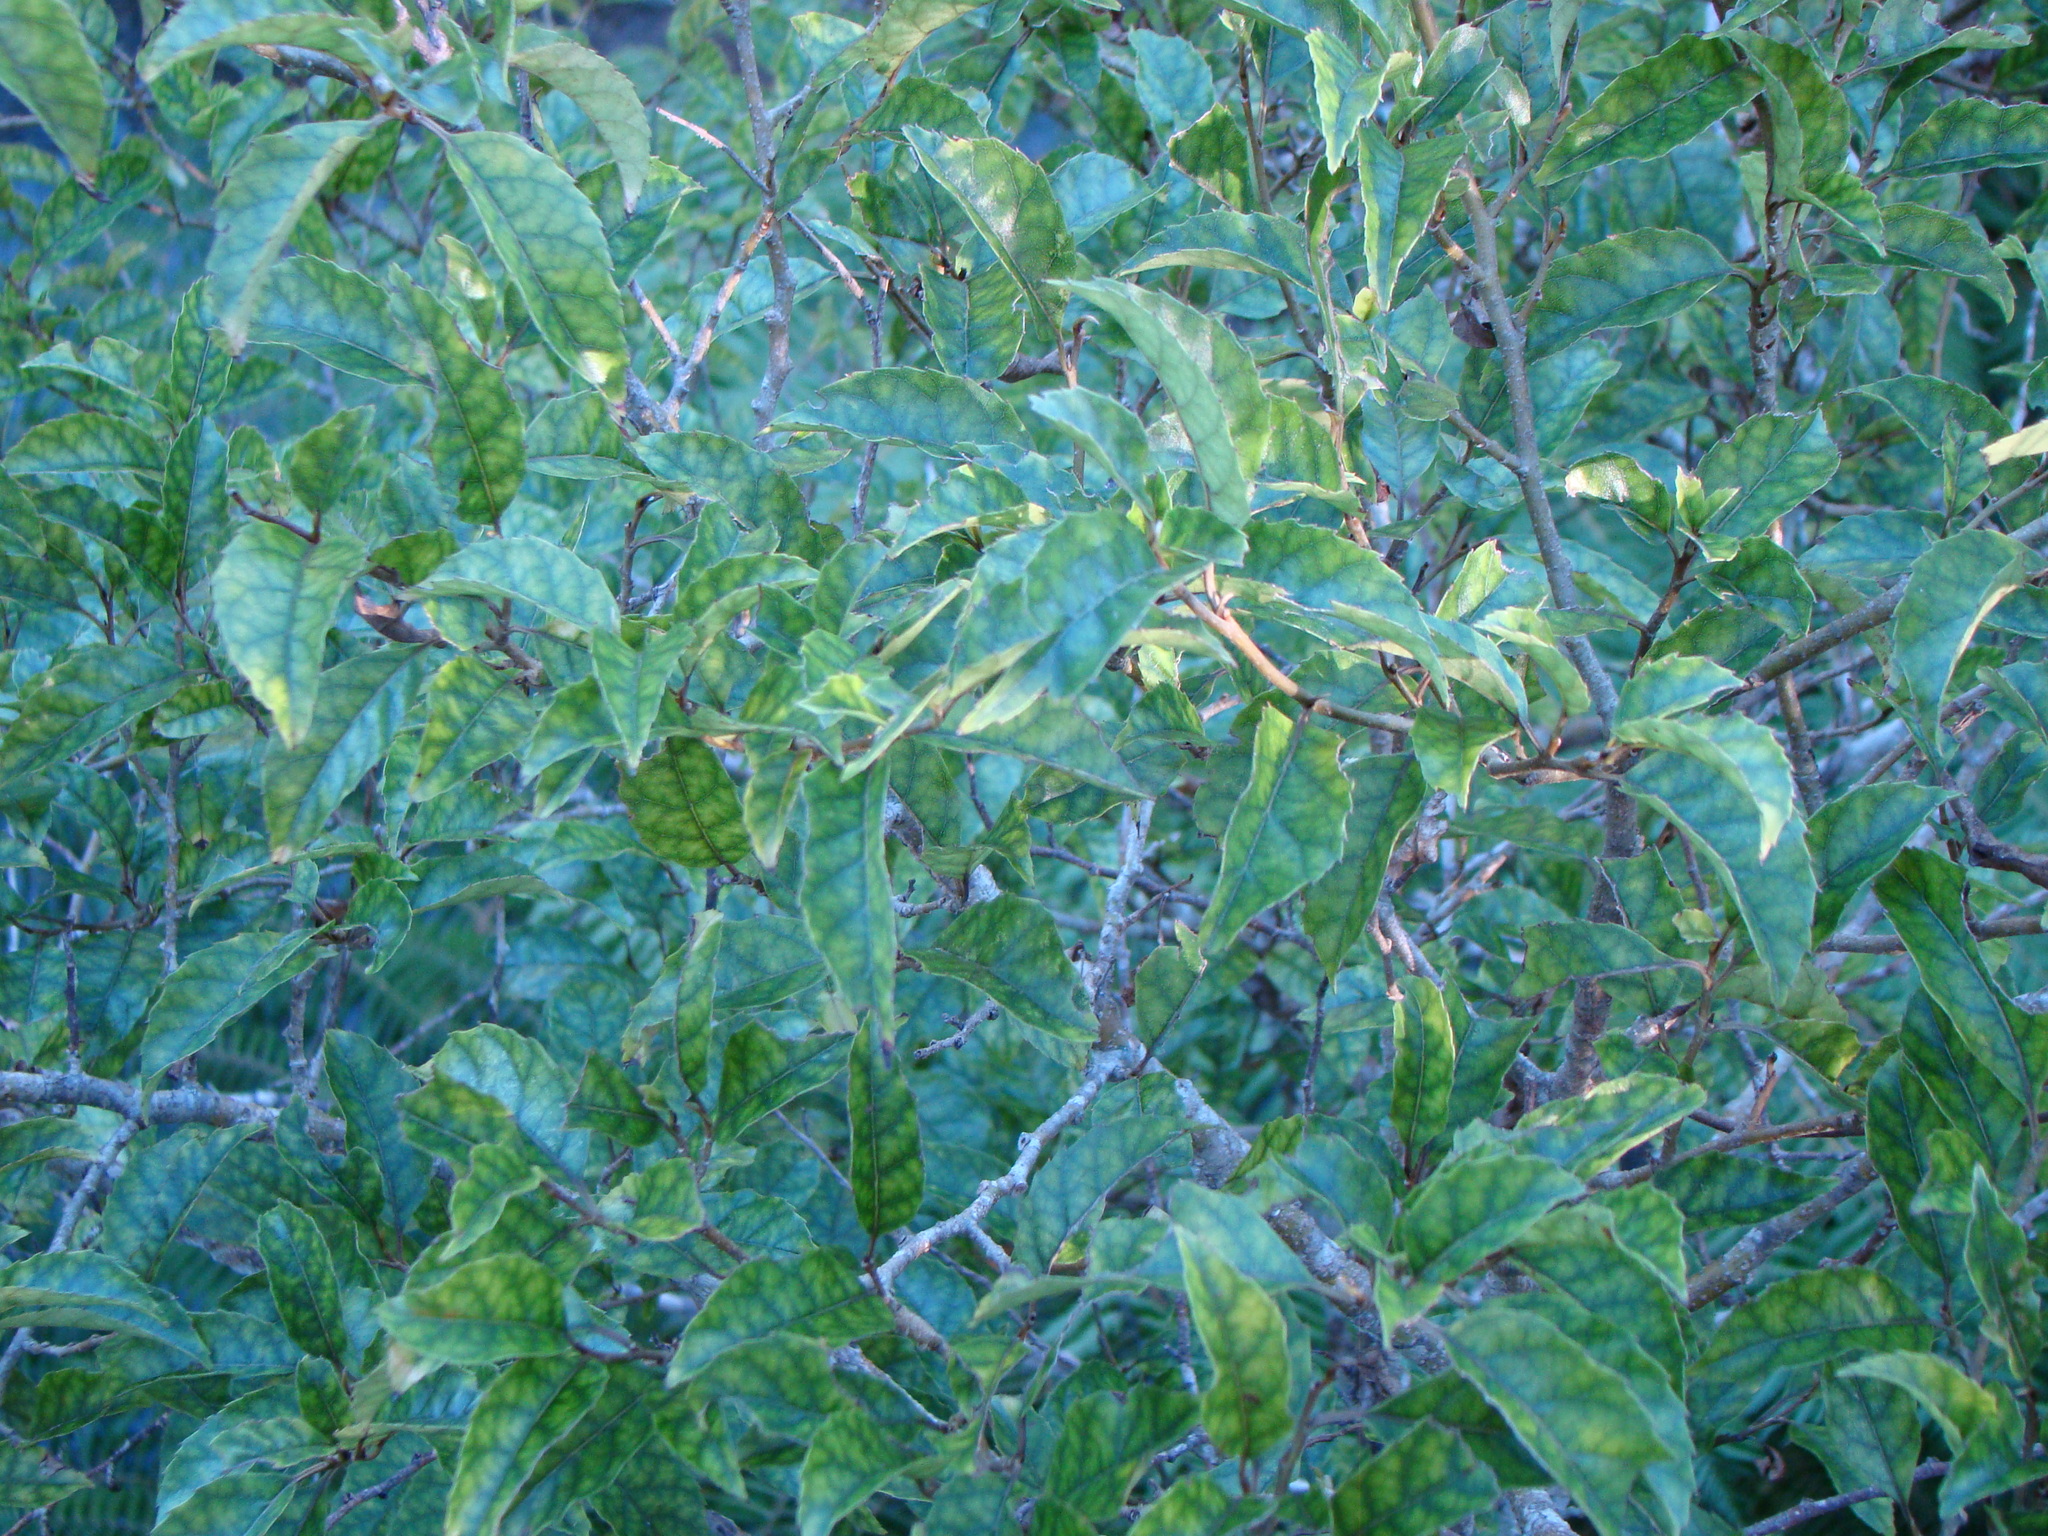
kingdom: Plantae
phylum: Tracheophyta
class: Magnoliopsida
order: Asterales
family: Rousseaceae
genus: Carpodetus
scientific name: Carpodetus serratus
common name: White mapau
